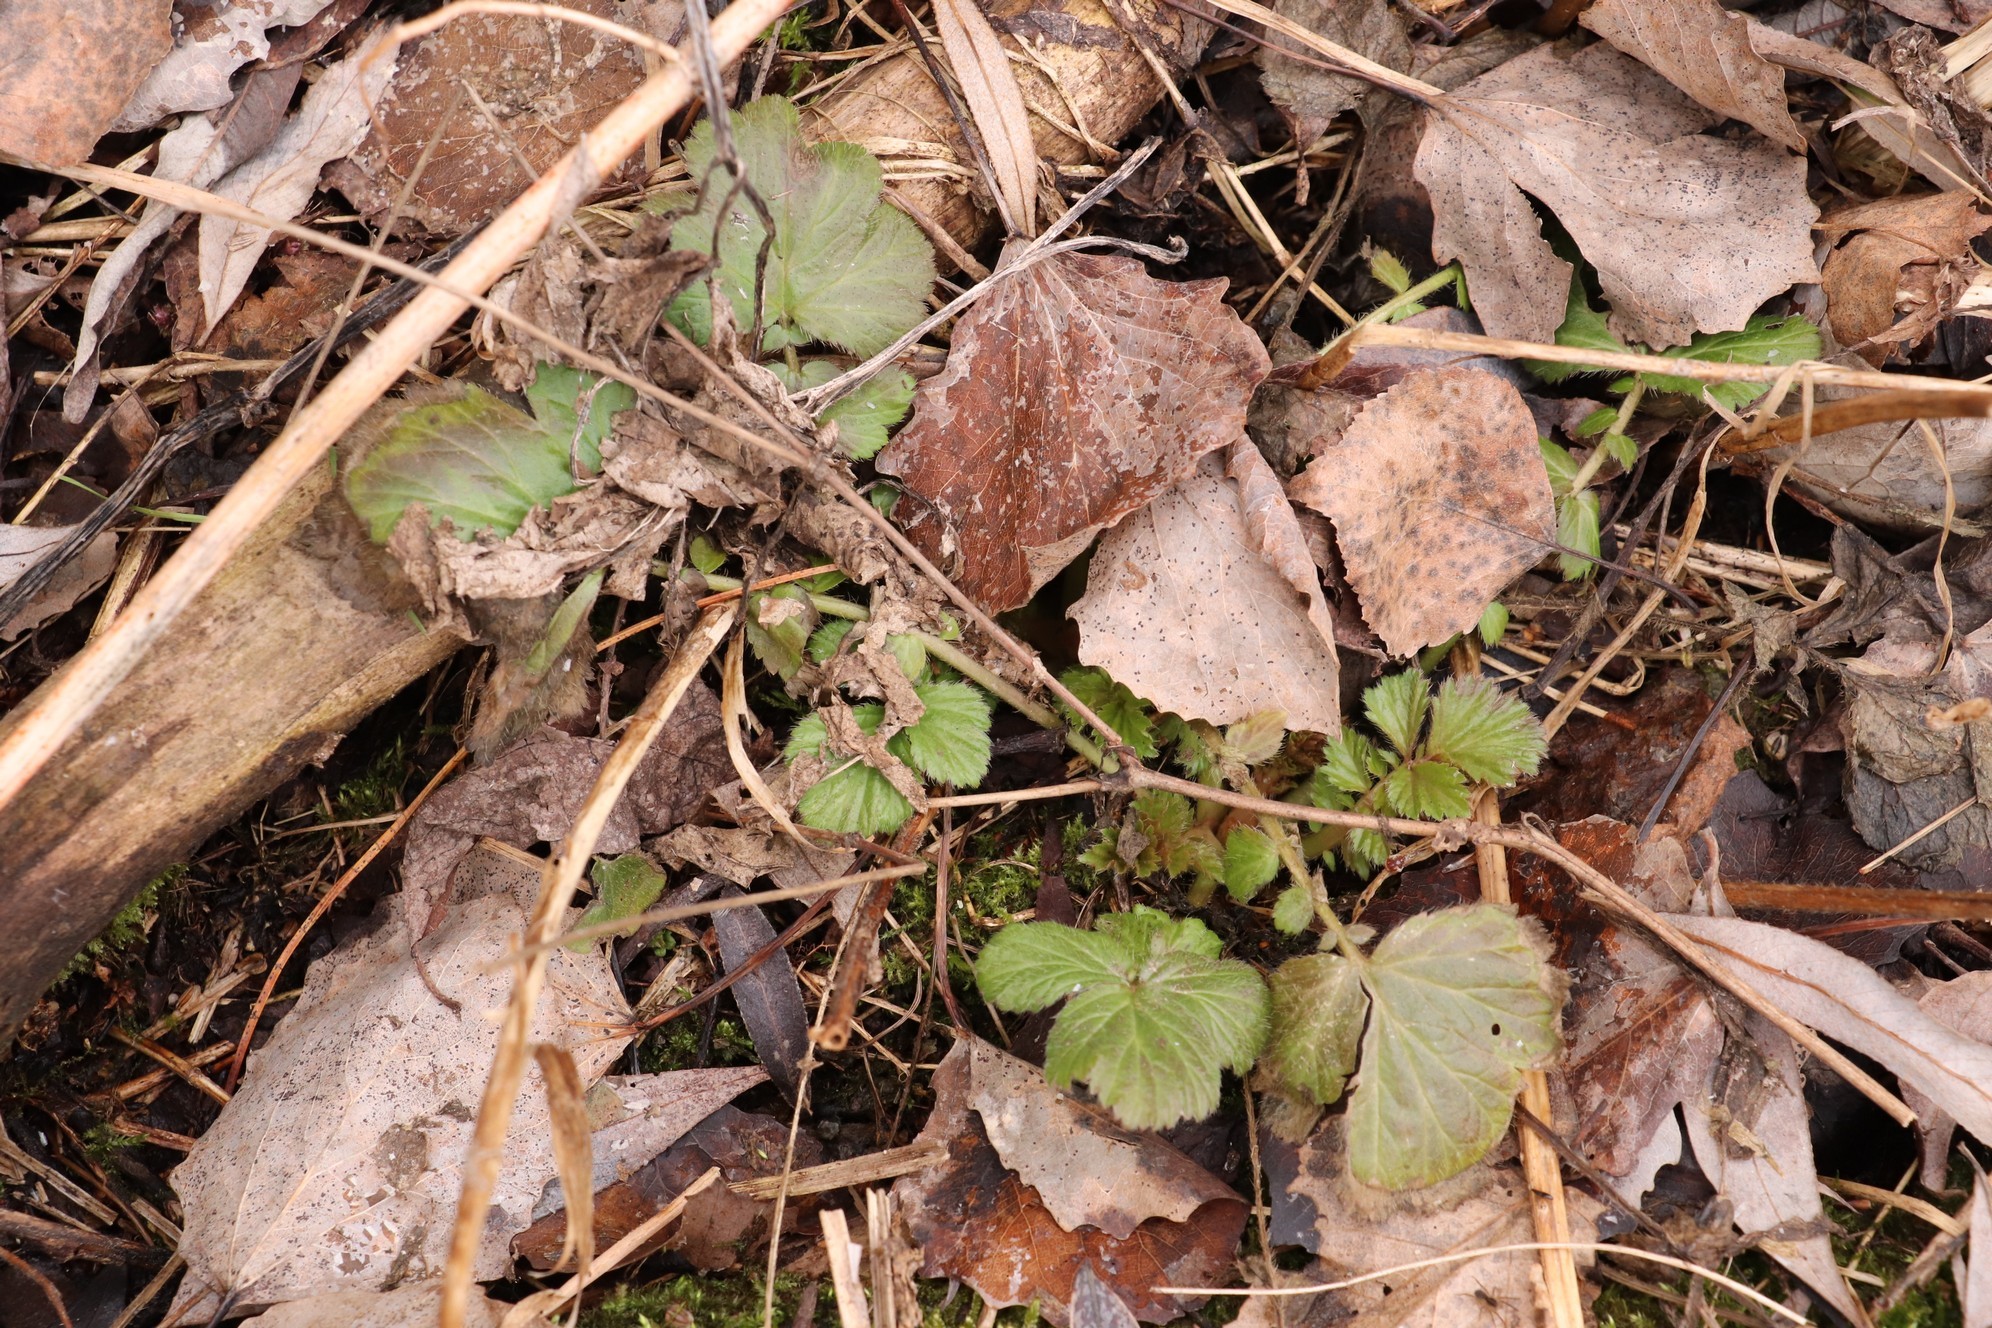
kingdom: Plantae
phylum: Tracheophyta
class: Magnoliopsida
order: Rosales
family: Rosaceae
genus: Geum
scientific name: Geum aleppicum
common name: Yellow avens
